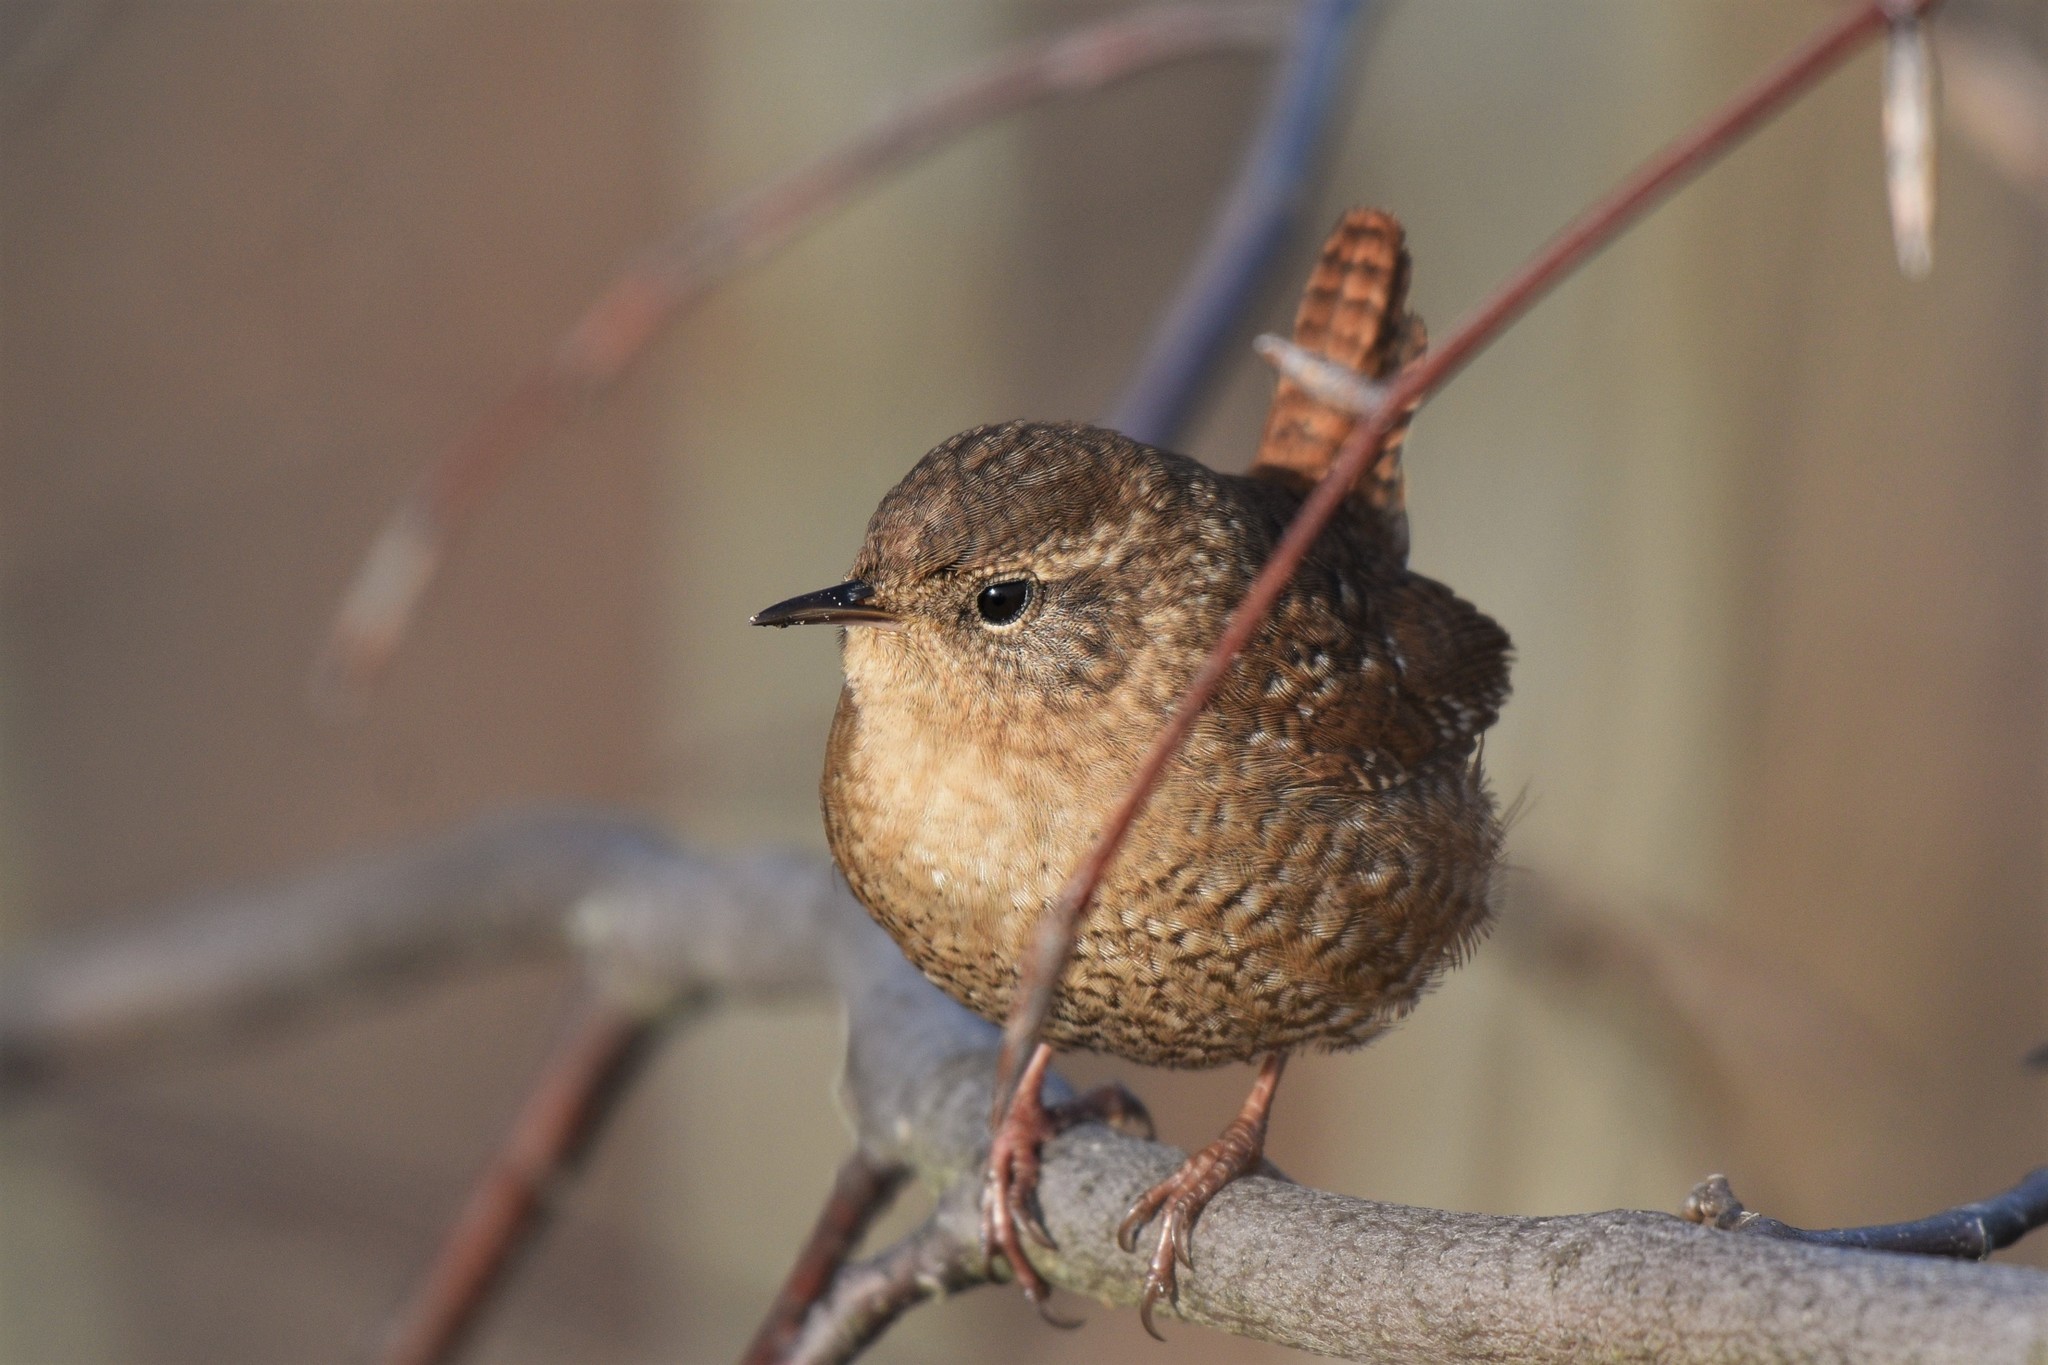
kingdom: Animalia
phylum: Chordata
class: Aves
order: Passeriformes
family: Troglodytidae
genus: Troglodytes
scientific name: Troglodytes hiemalis
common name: Winter wren
